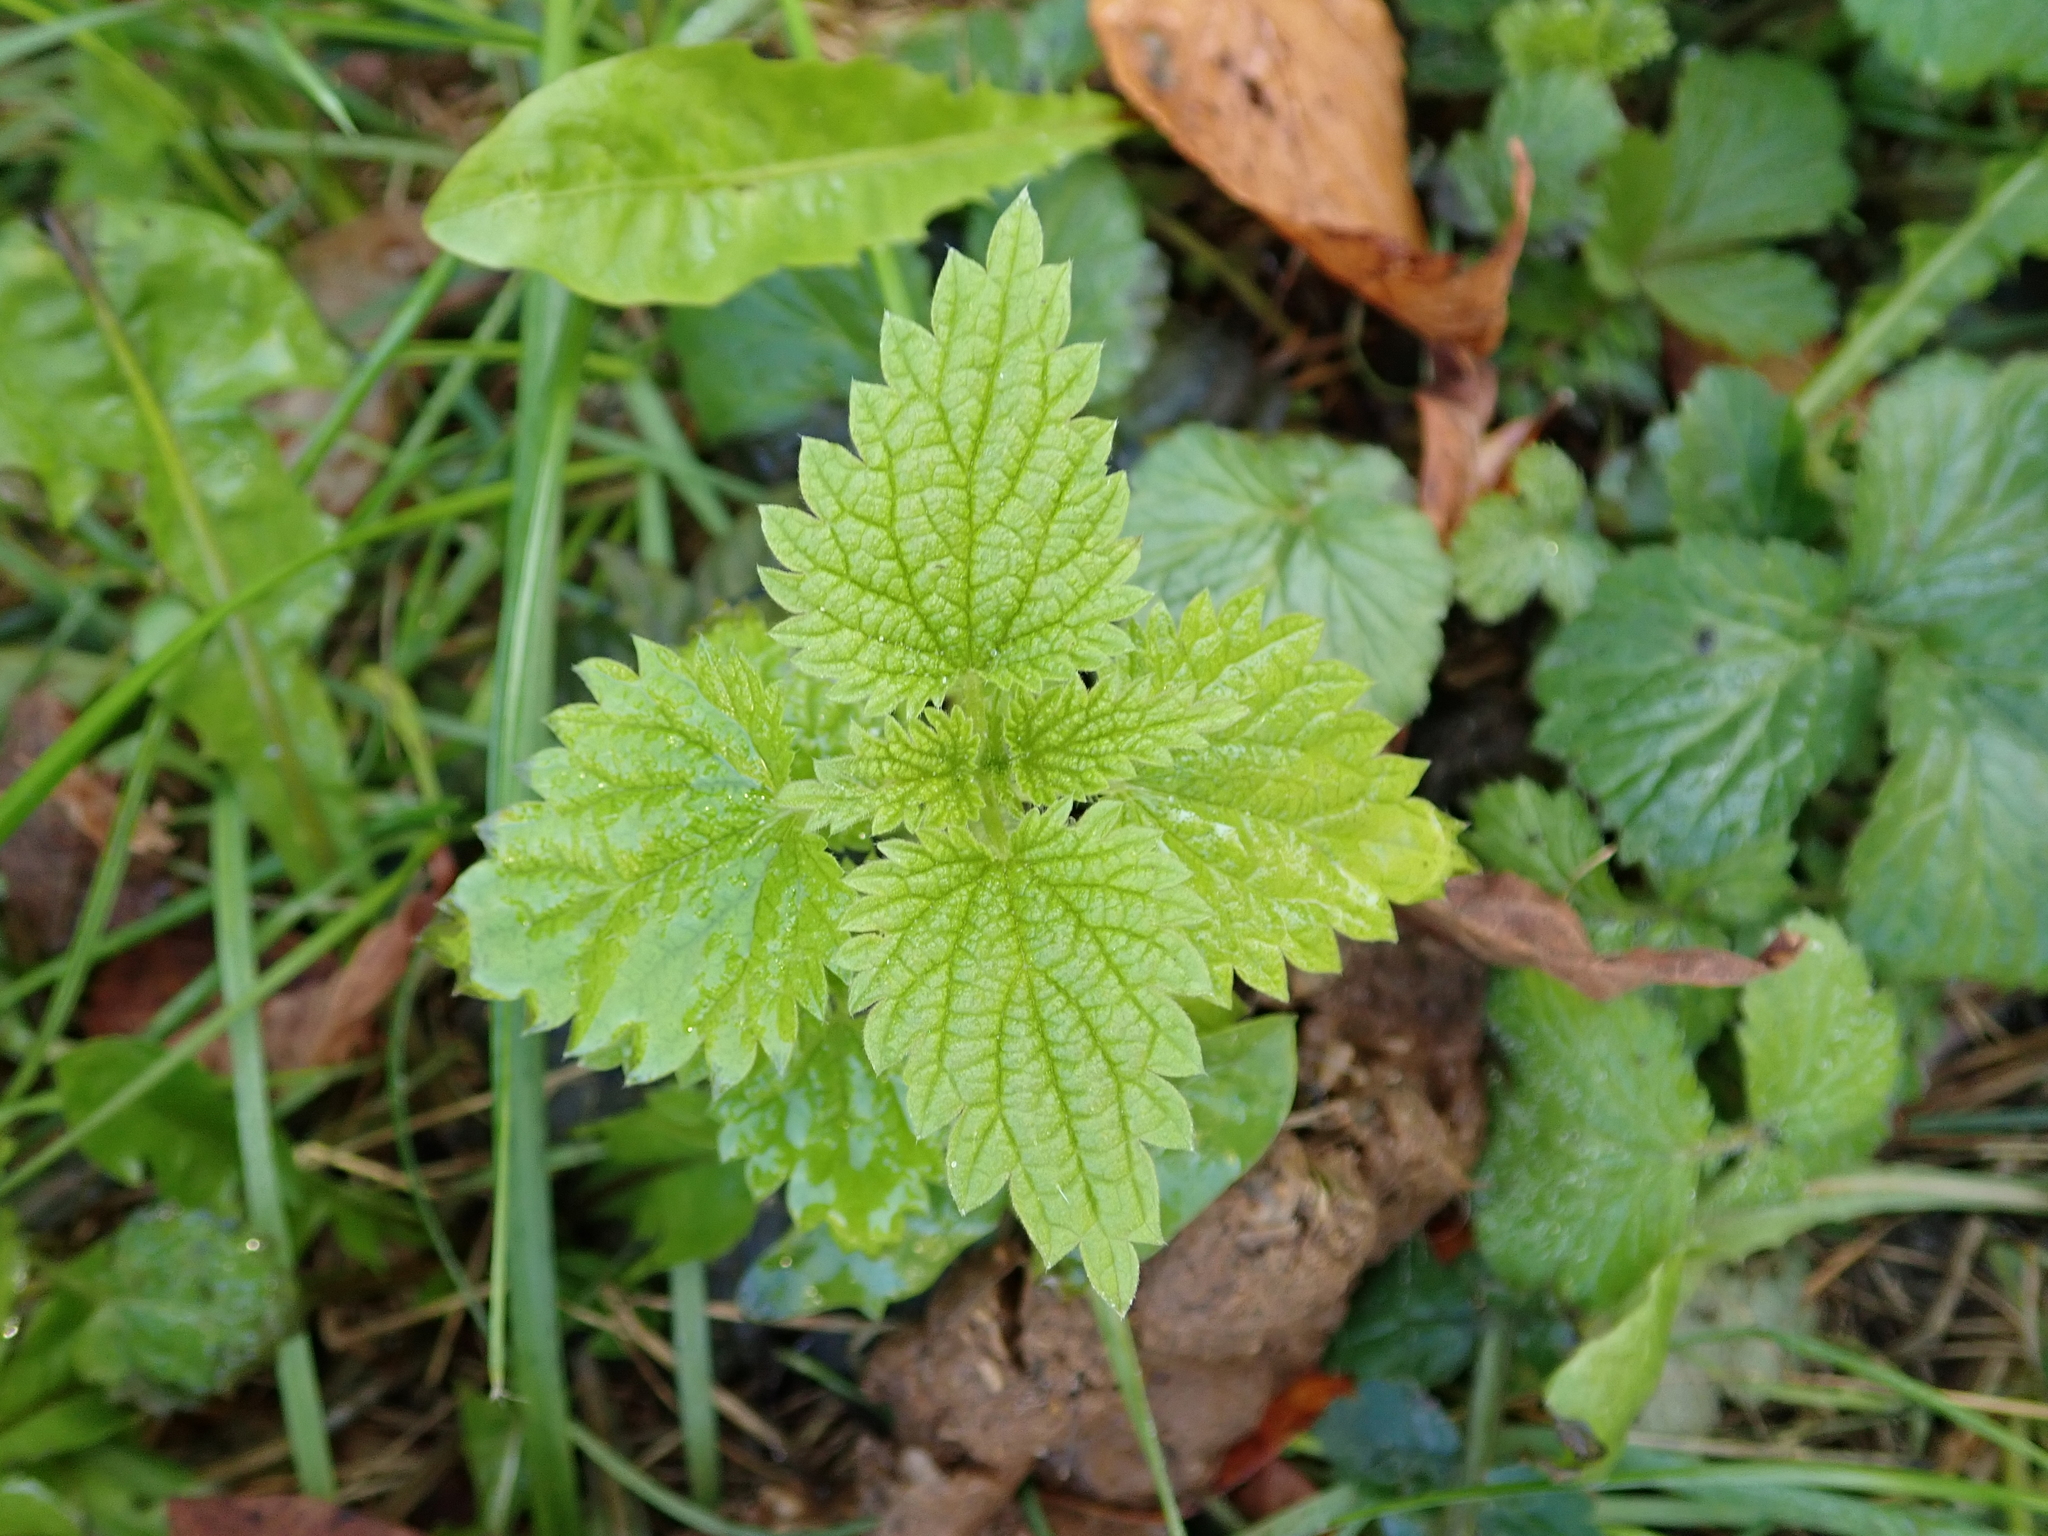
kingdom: Plantae
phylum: Tracheophyta
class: Magnoliopsida
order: Rosales
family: Urticaceae
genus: Urtica
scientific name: Urtica dioica
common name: Common nettle
